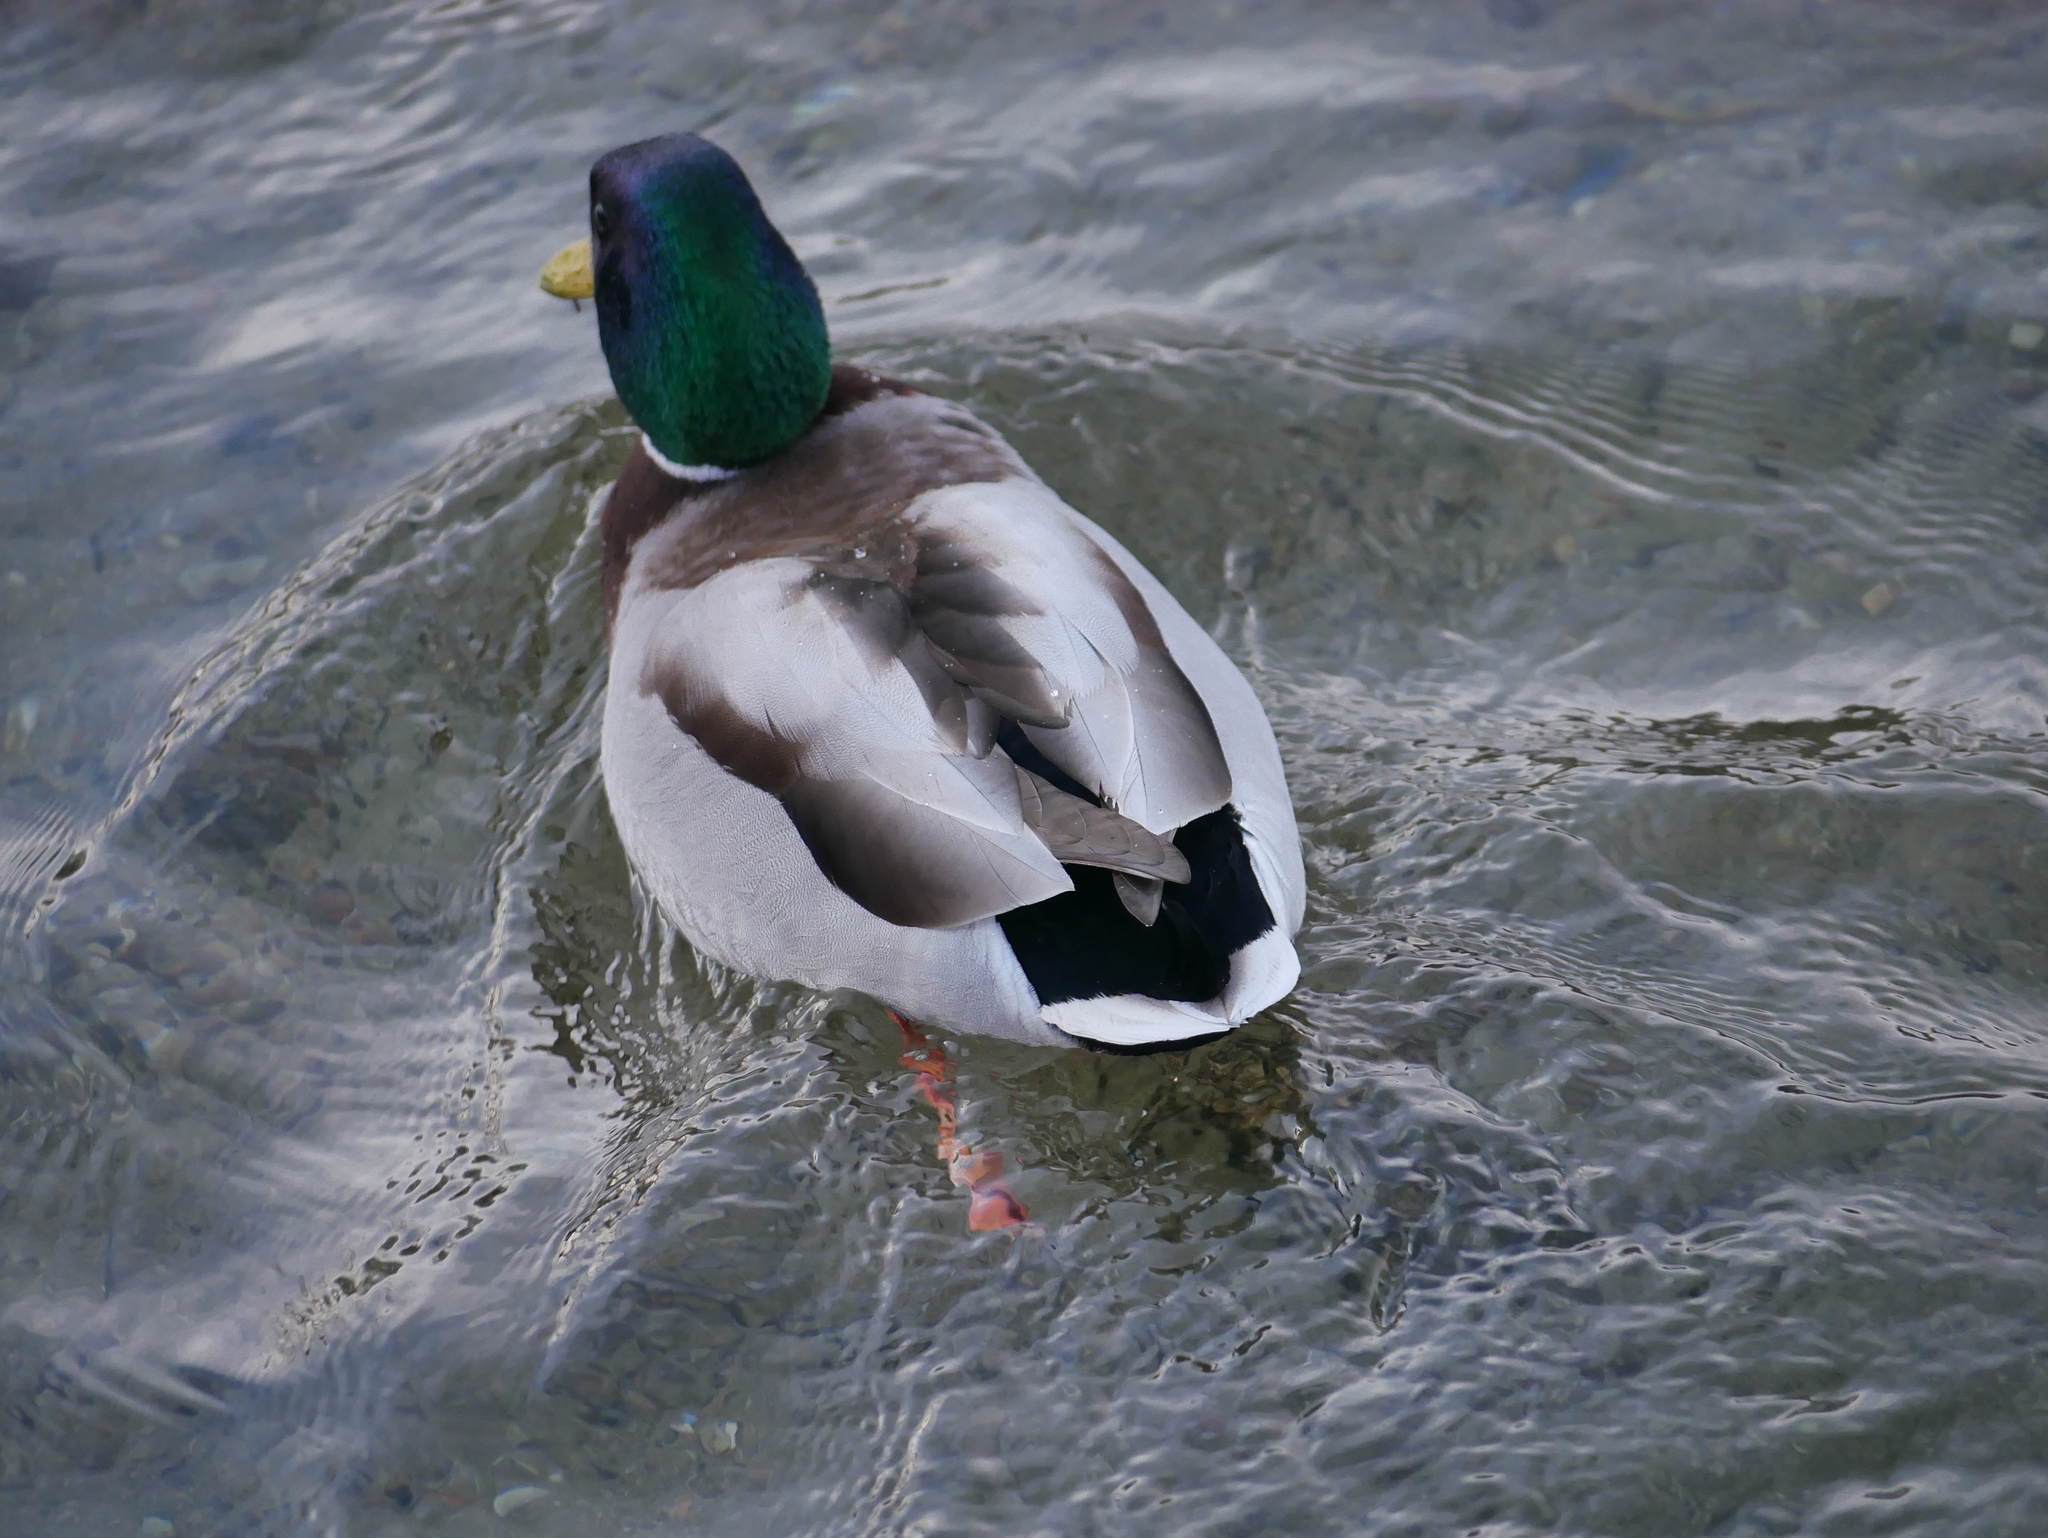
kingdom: Animalia
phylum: Chordata
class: Aves
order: Anseriformes
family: Anatidae
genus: Anas
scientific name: Anas platyrhynchos
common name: Mallard
